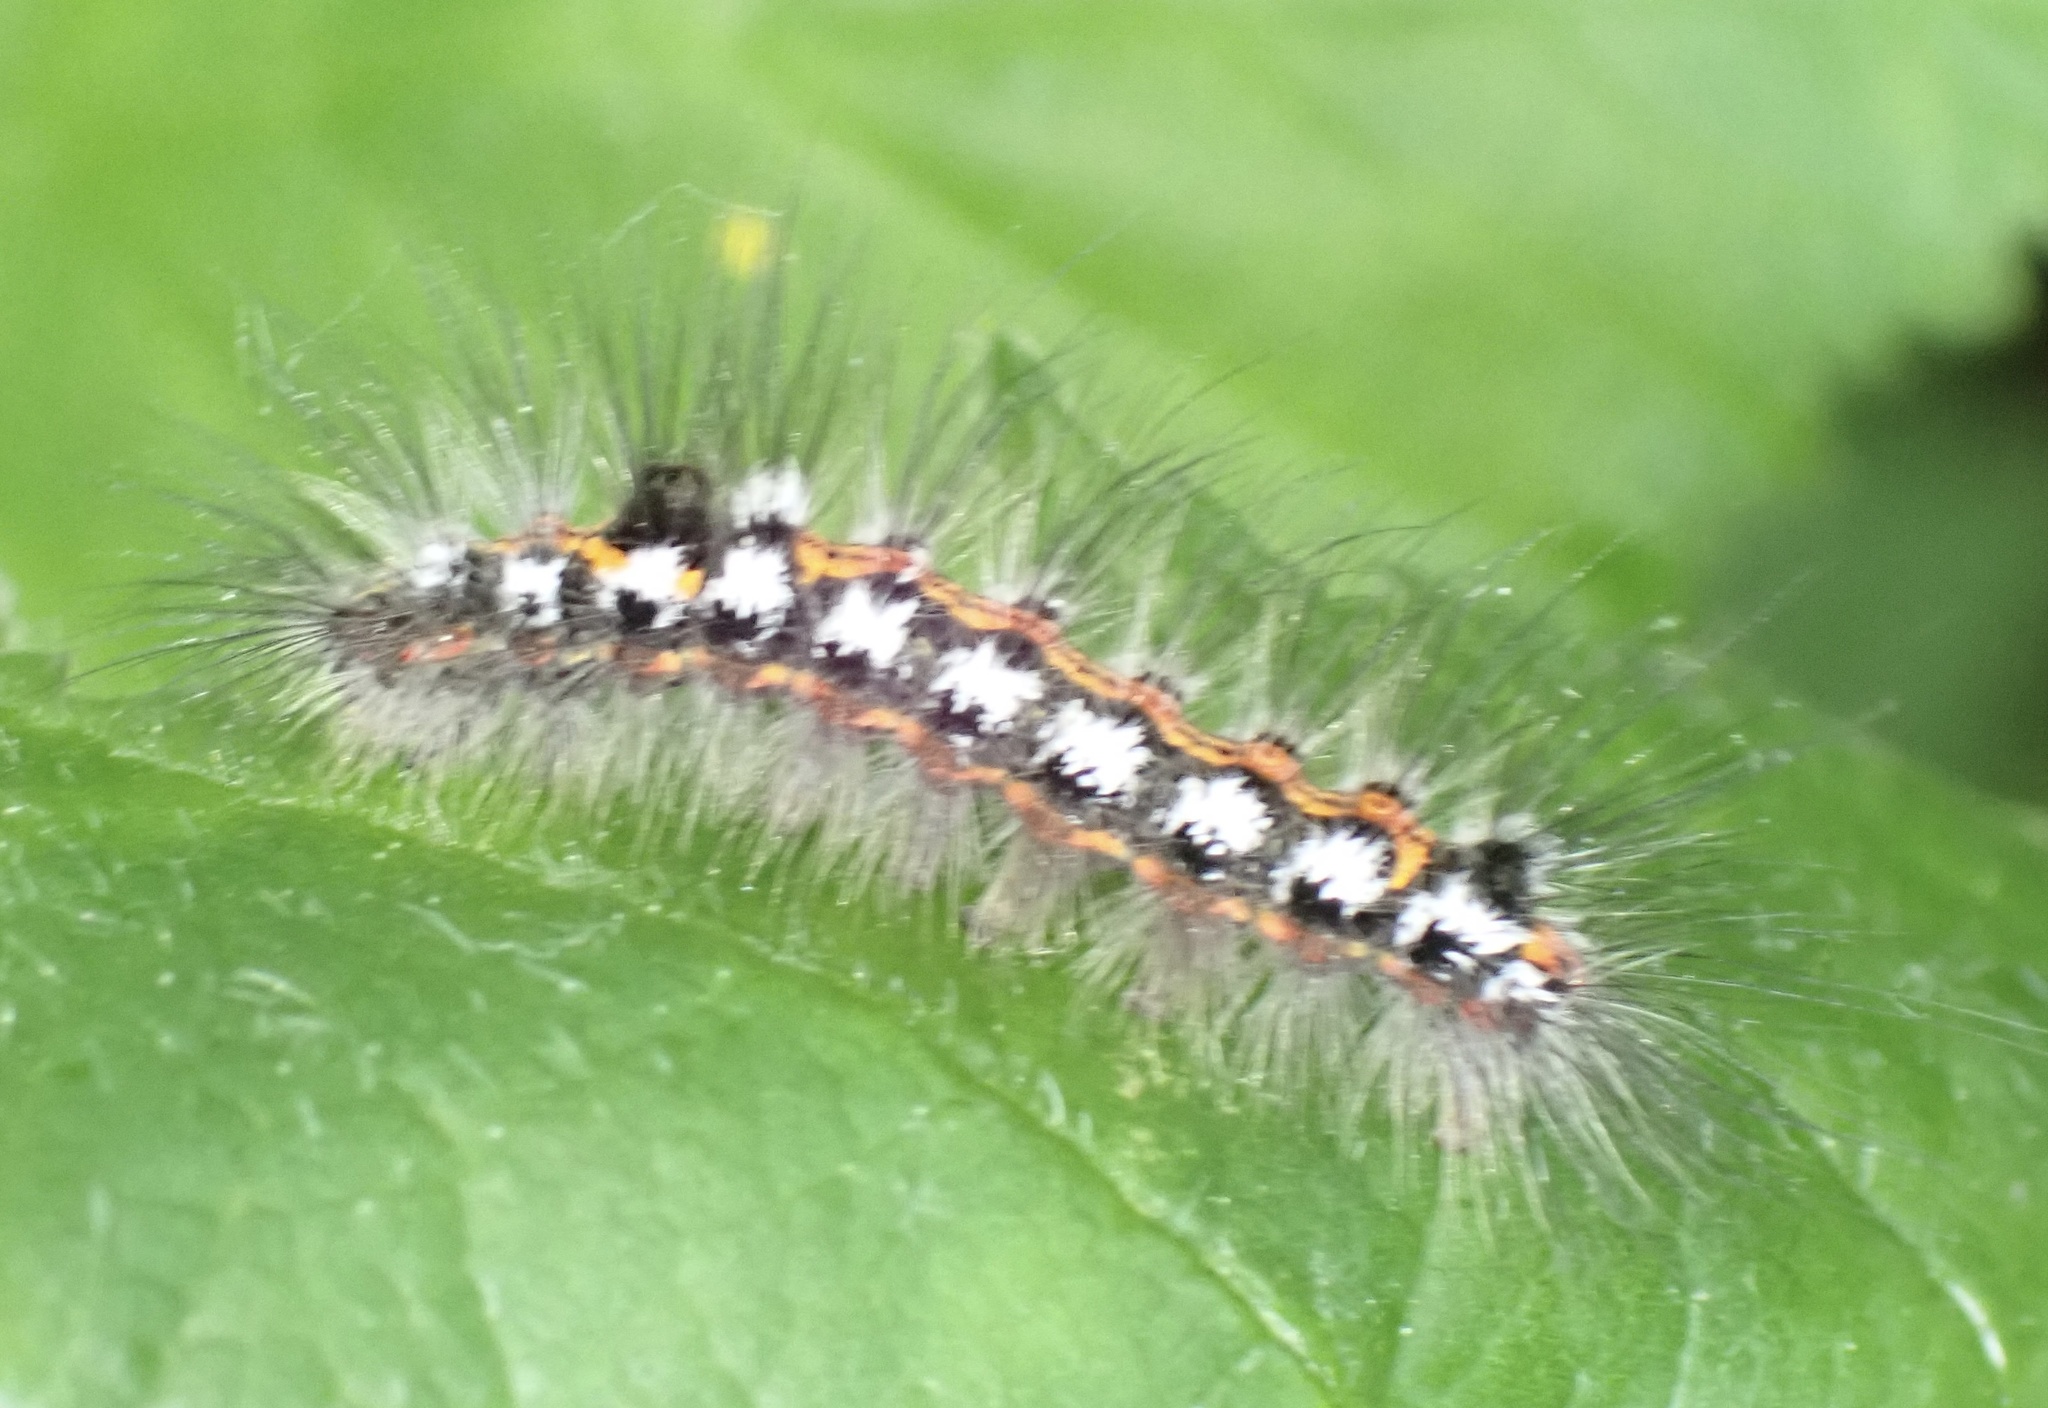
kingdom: Animalia
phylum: Arthropoda
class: Insecta
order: Lepidoptera
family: Erebidae
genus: Sphrageidus
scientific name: Sphrageidus similis
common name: Yellow-tail
